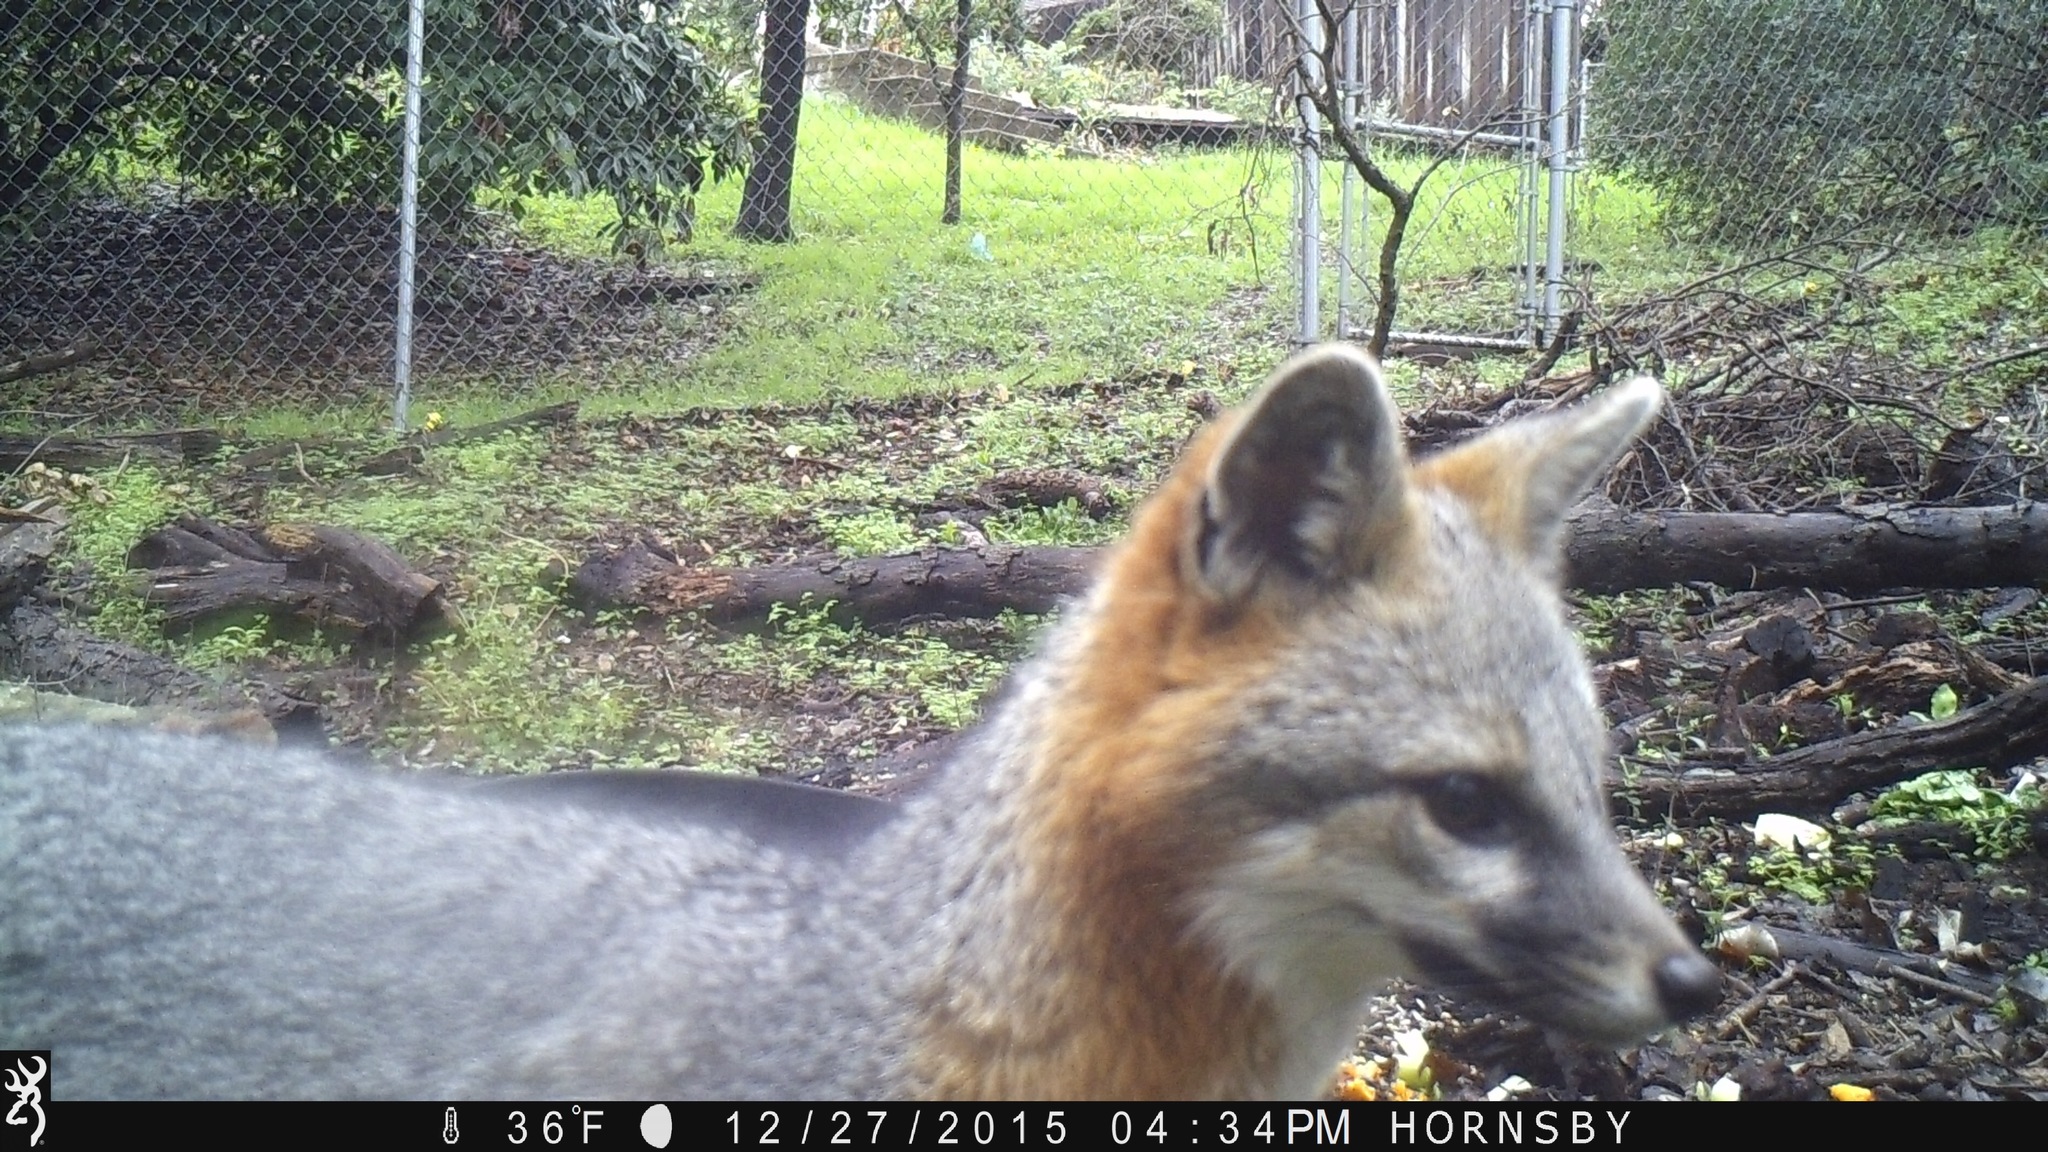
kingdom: Animalia
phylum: Chordata
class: Mammalia
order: Carnivora
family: Canidae
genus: Urocyon
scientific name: Urocyon cinereoargenteus
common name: Gray fox
